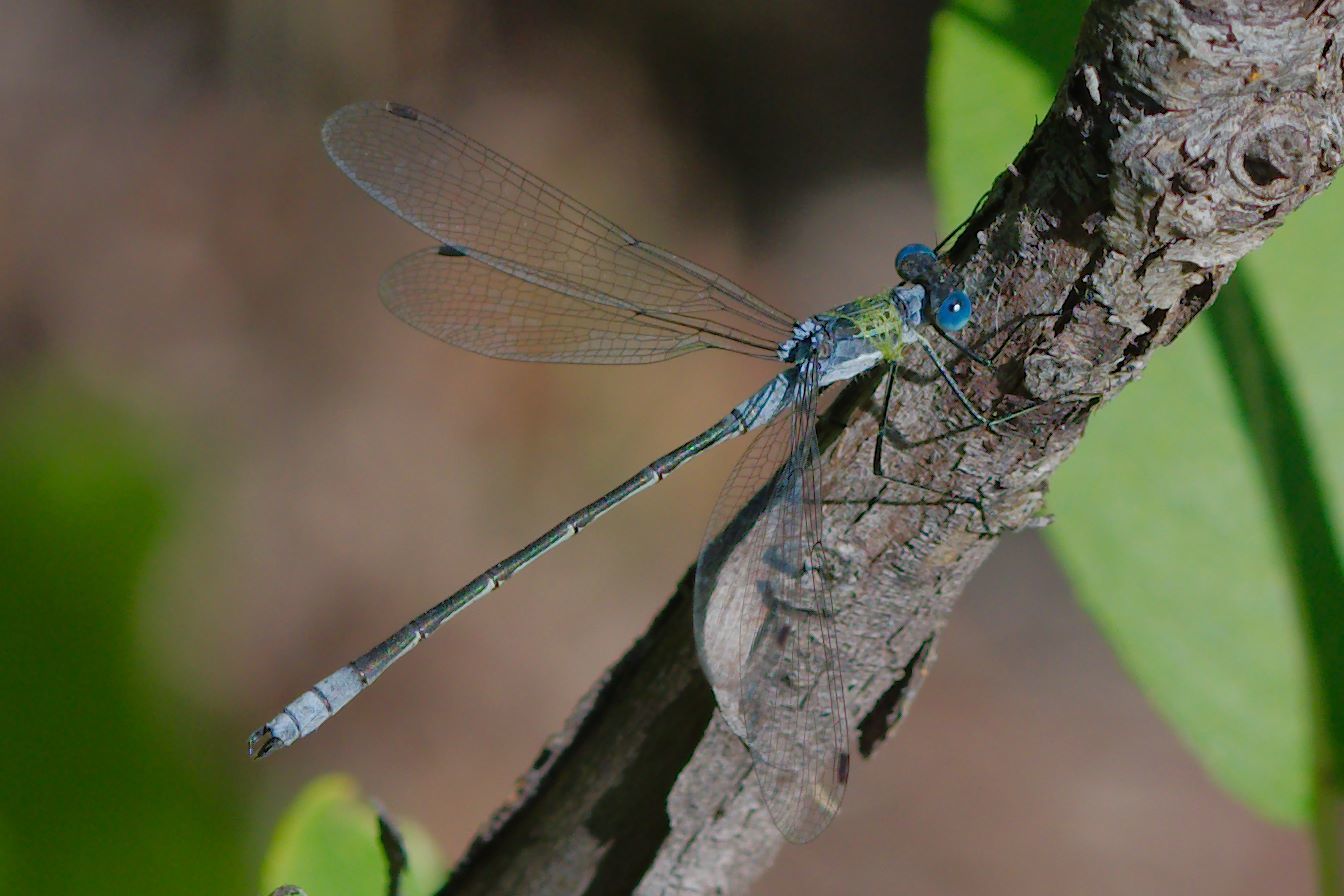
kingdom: Animalia
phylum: Arthropoda
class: Insecta
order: Odonata
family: Lestidae
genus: Lestes
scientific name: Lestes disjunctus
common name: Northern spreadwing
